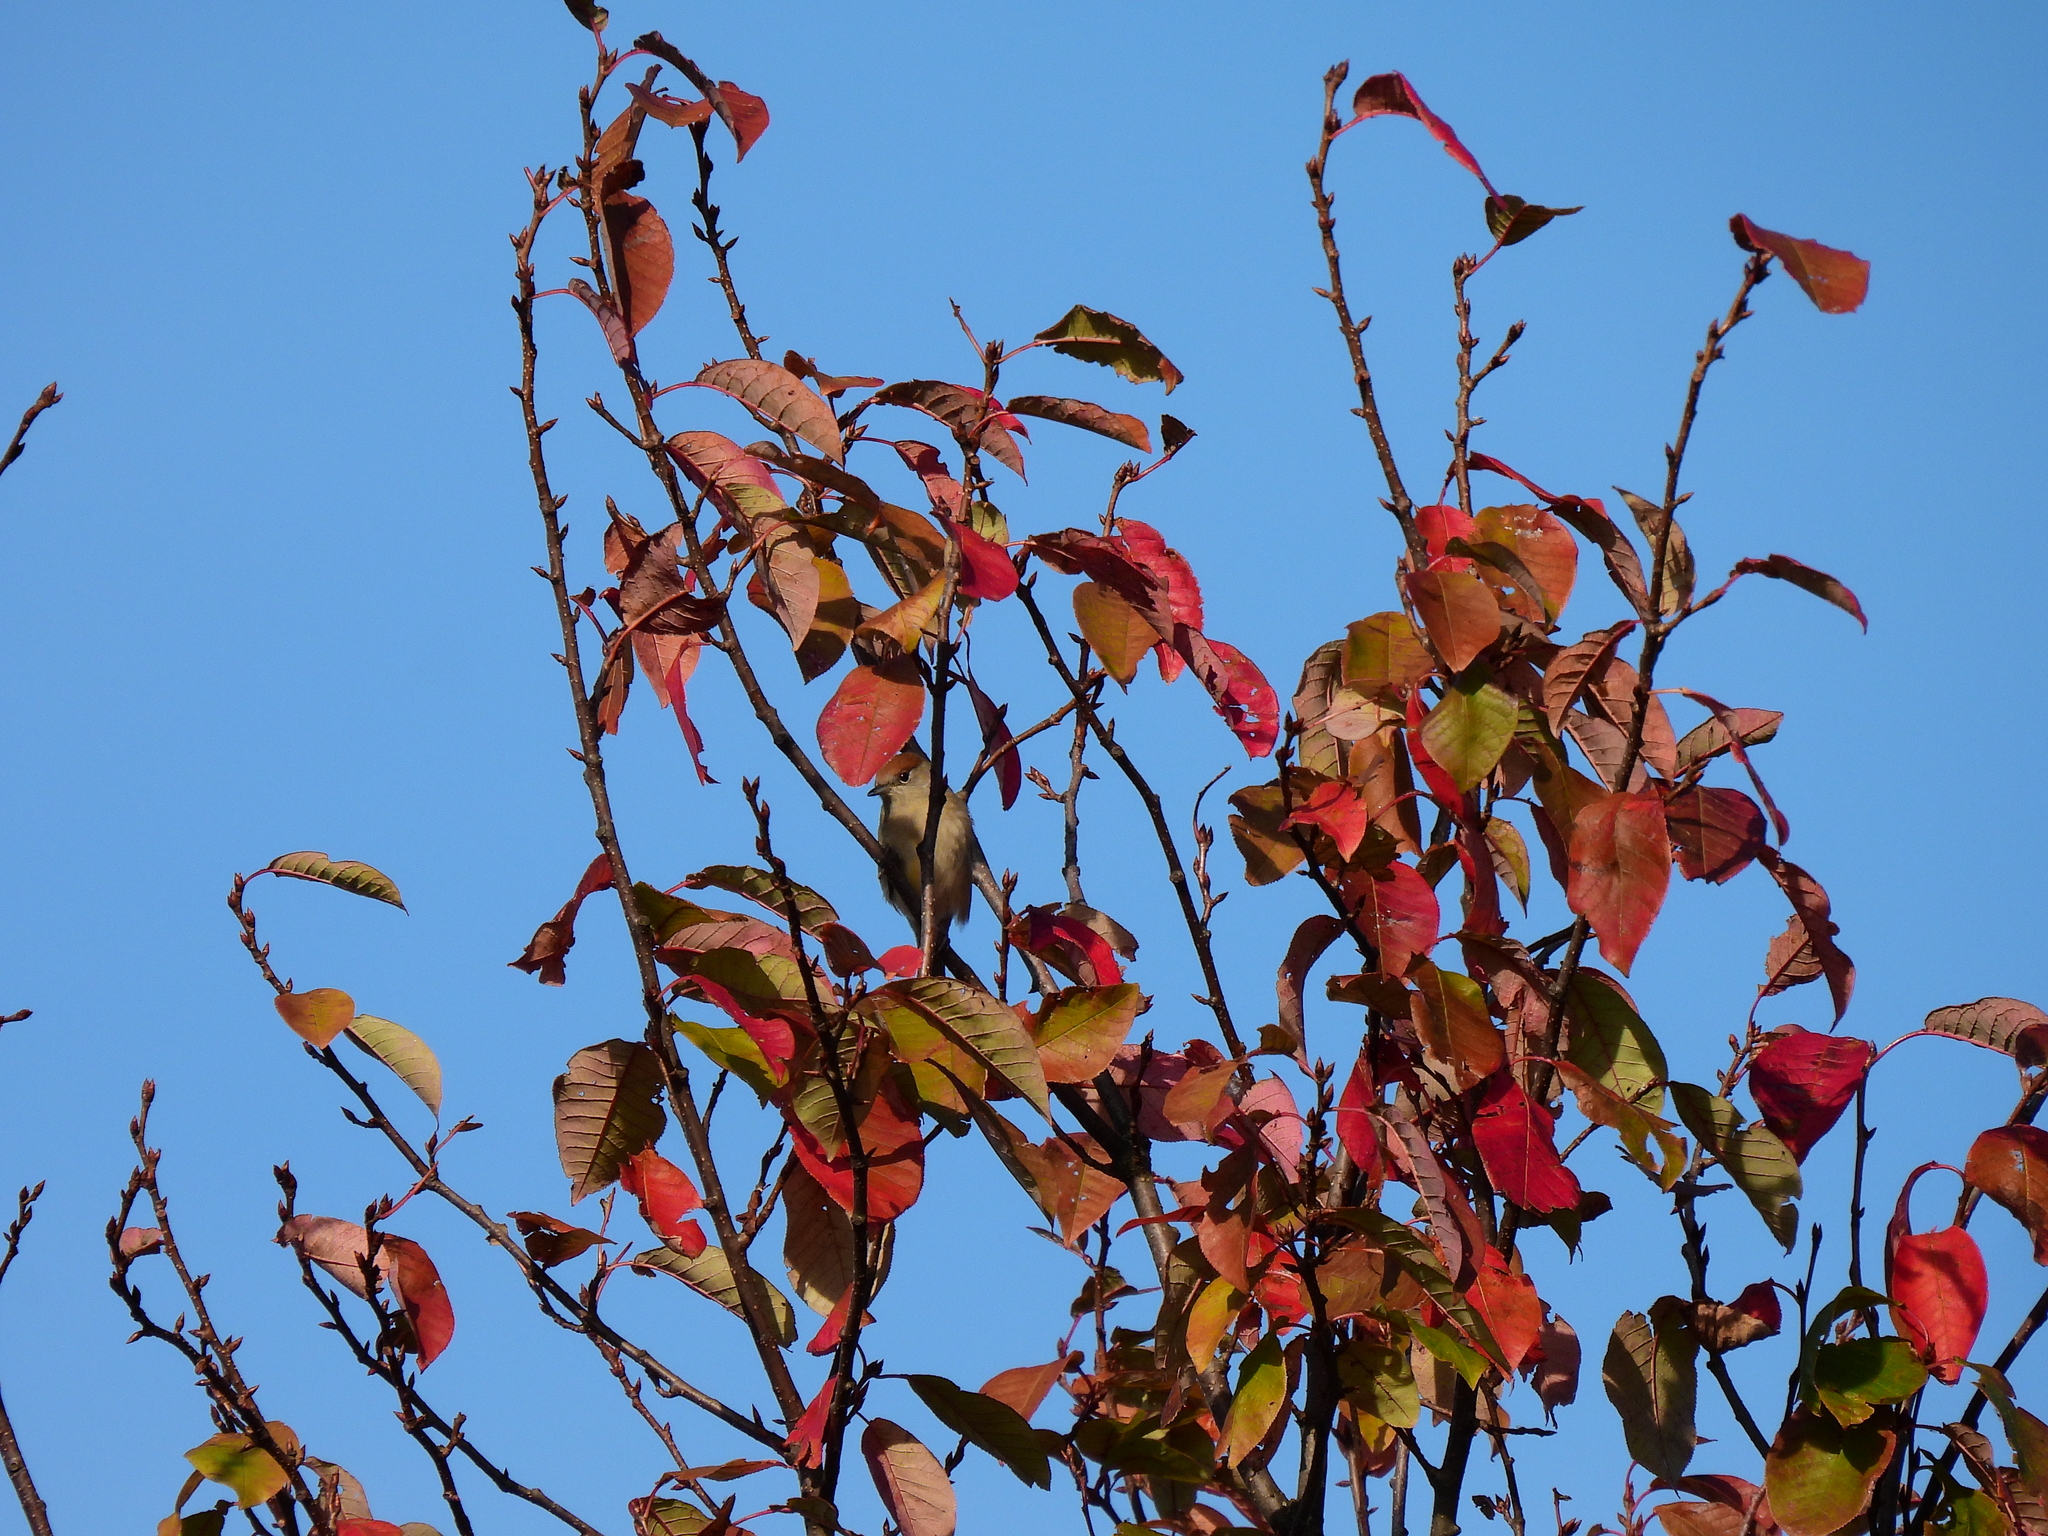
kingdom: Animalia
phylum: Chordata
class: Aves
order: Passeriformes
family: Sylviidae
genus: Sylvia
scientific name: Sylvia atricapilla
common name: Eurasian blackcap
